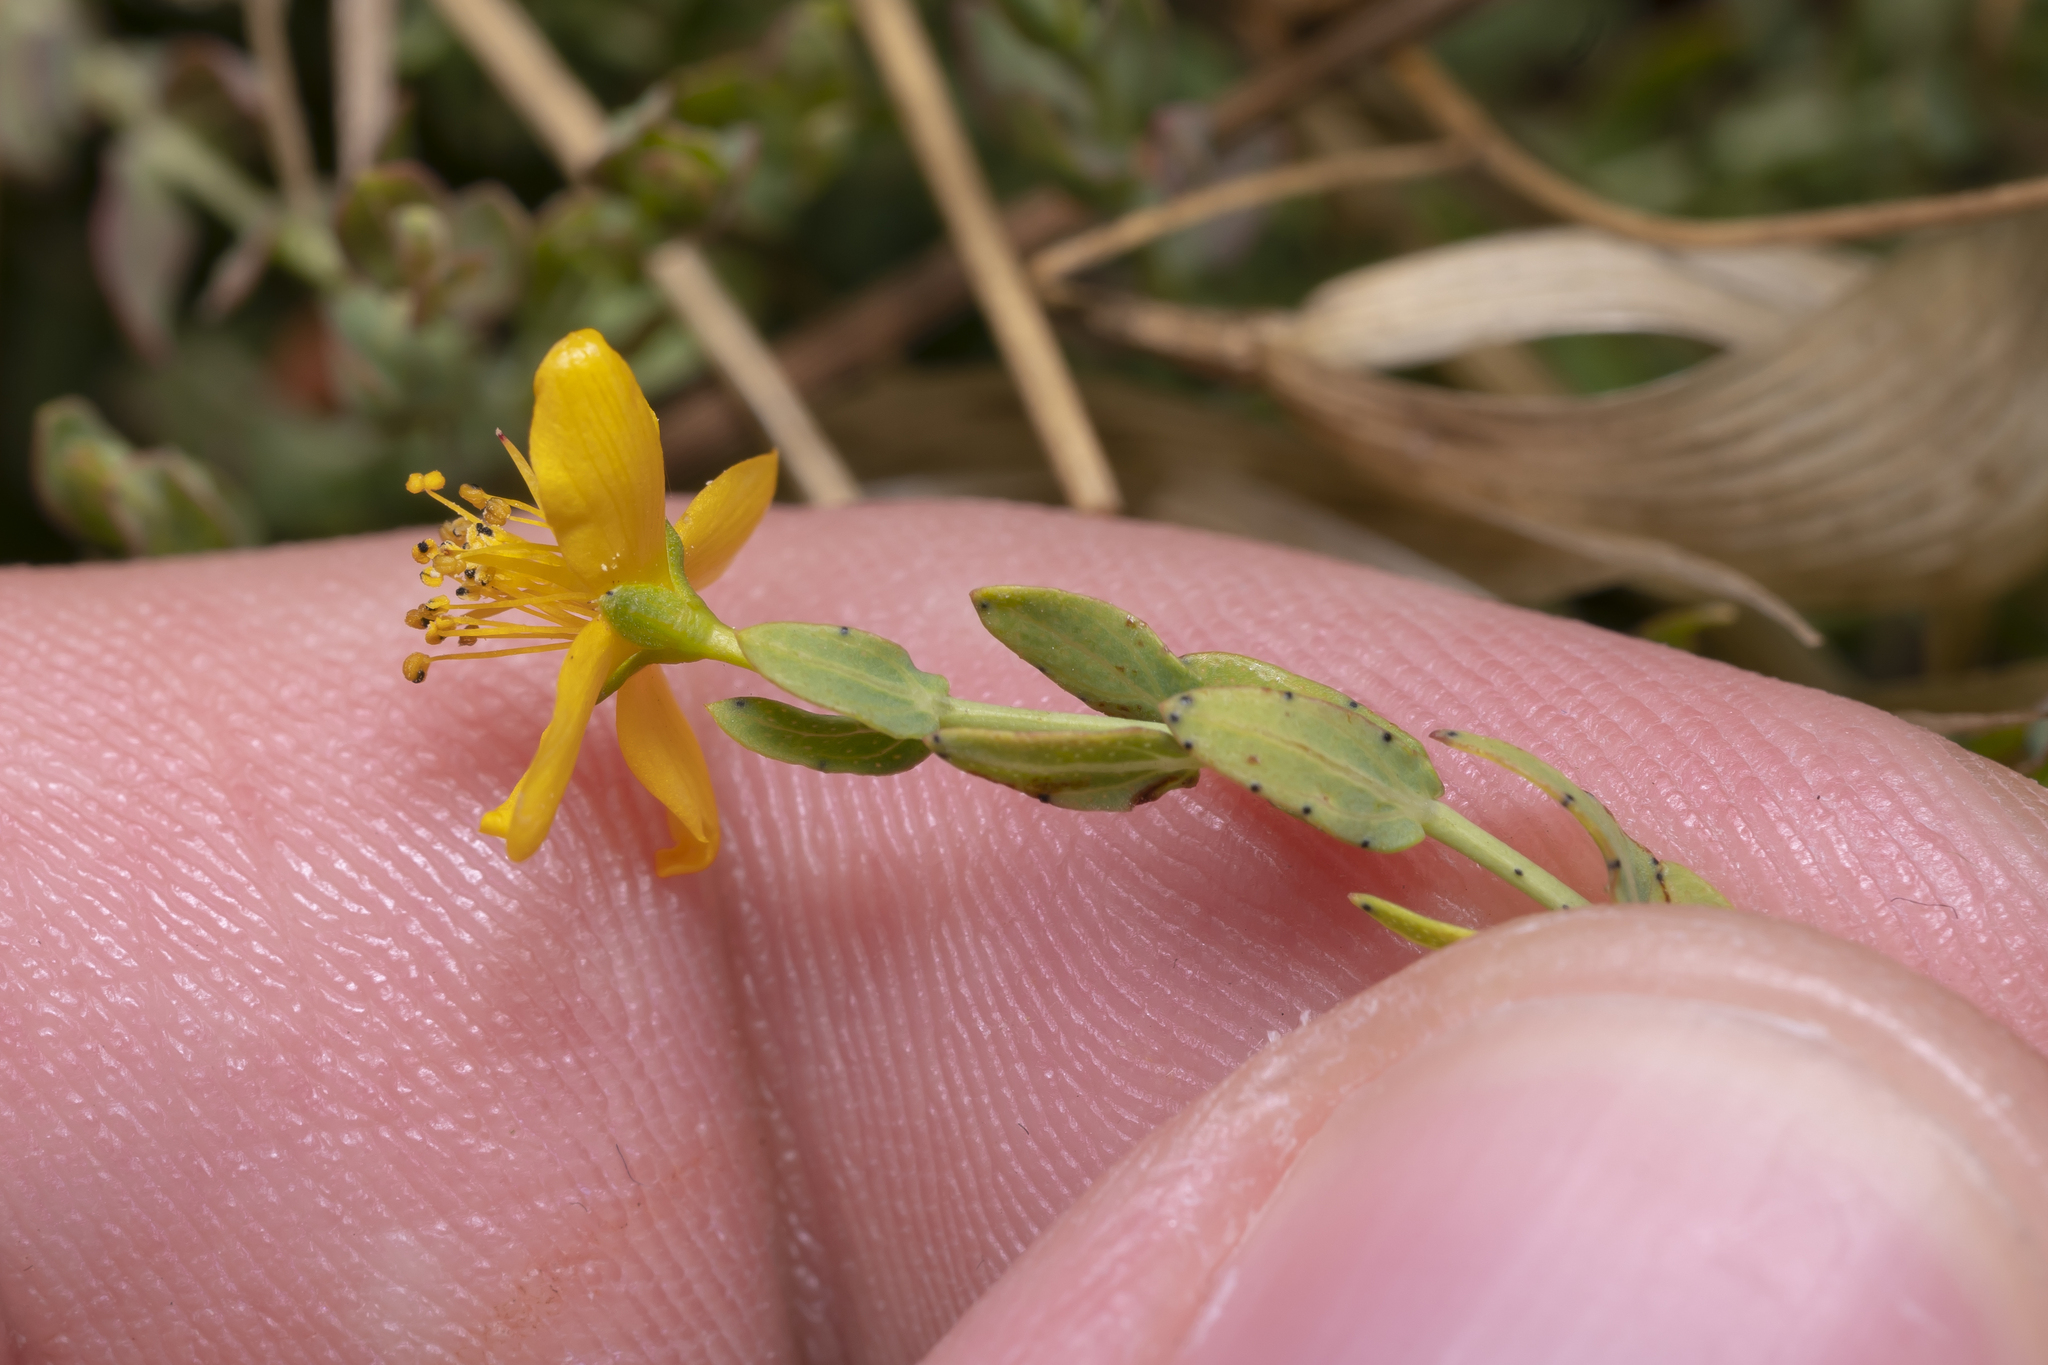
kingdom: Plantae
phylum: Tracheophyta
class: Magnoliopsida
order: Malpighiales
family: Hypericaceae
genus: Hypericum
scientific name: Hypericum triquetrifolium
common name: Tangled hypericum
